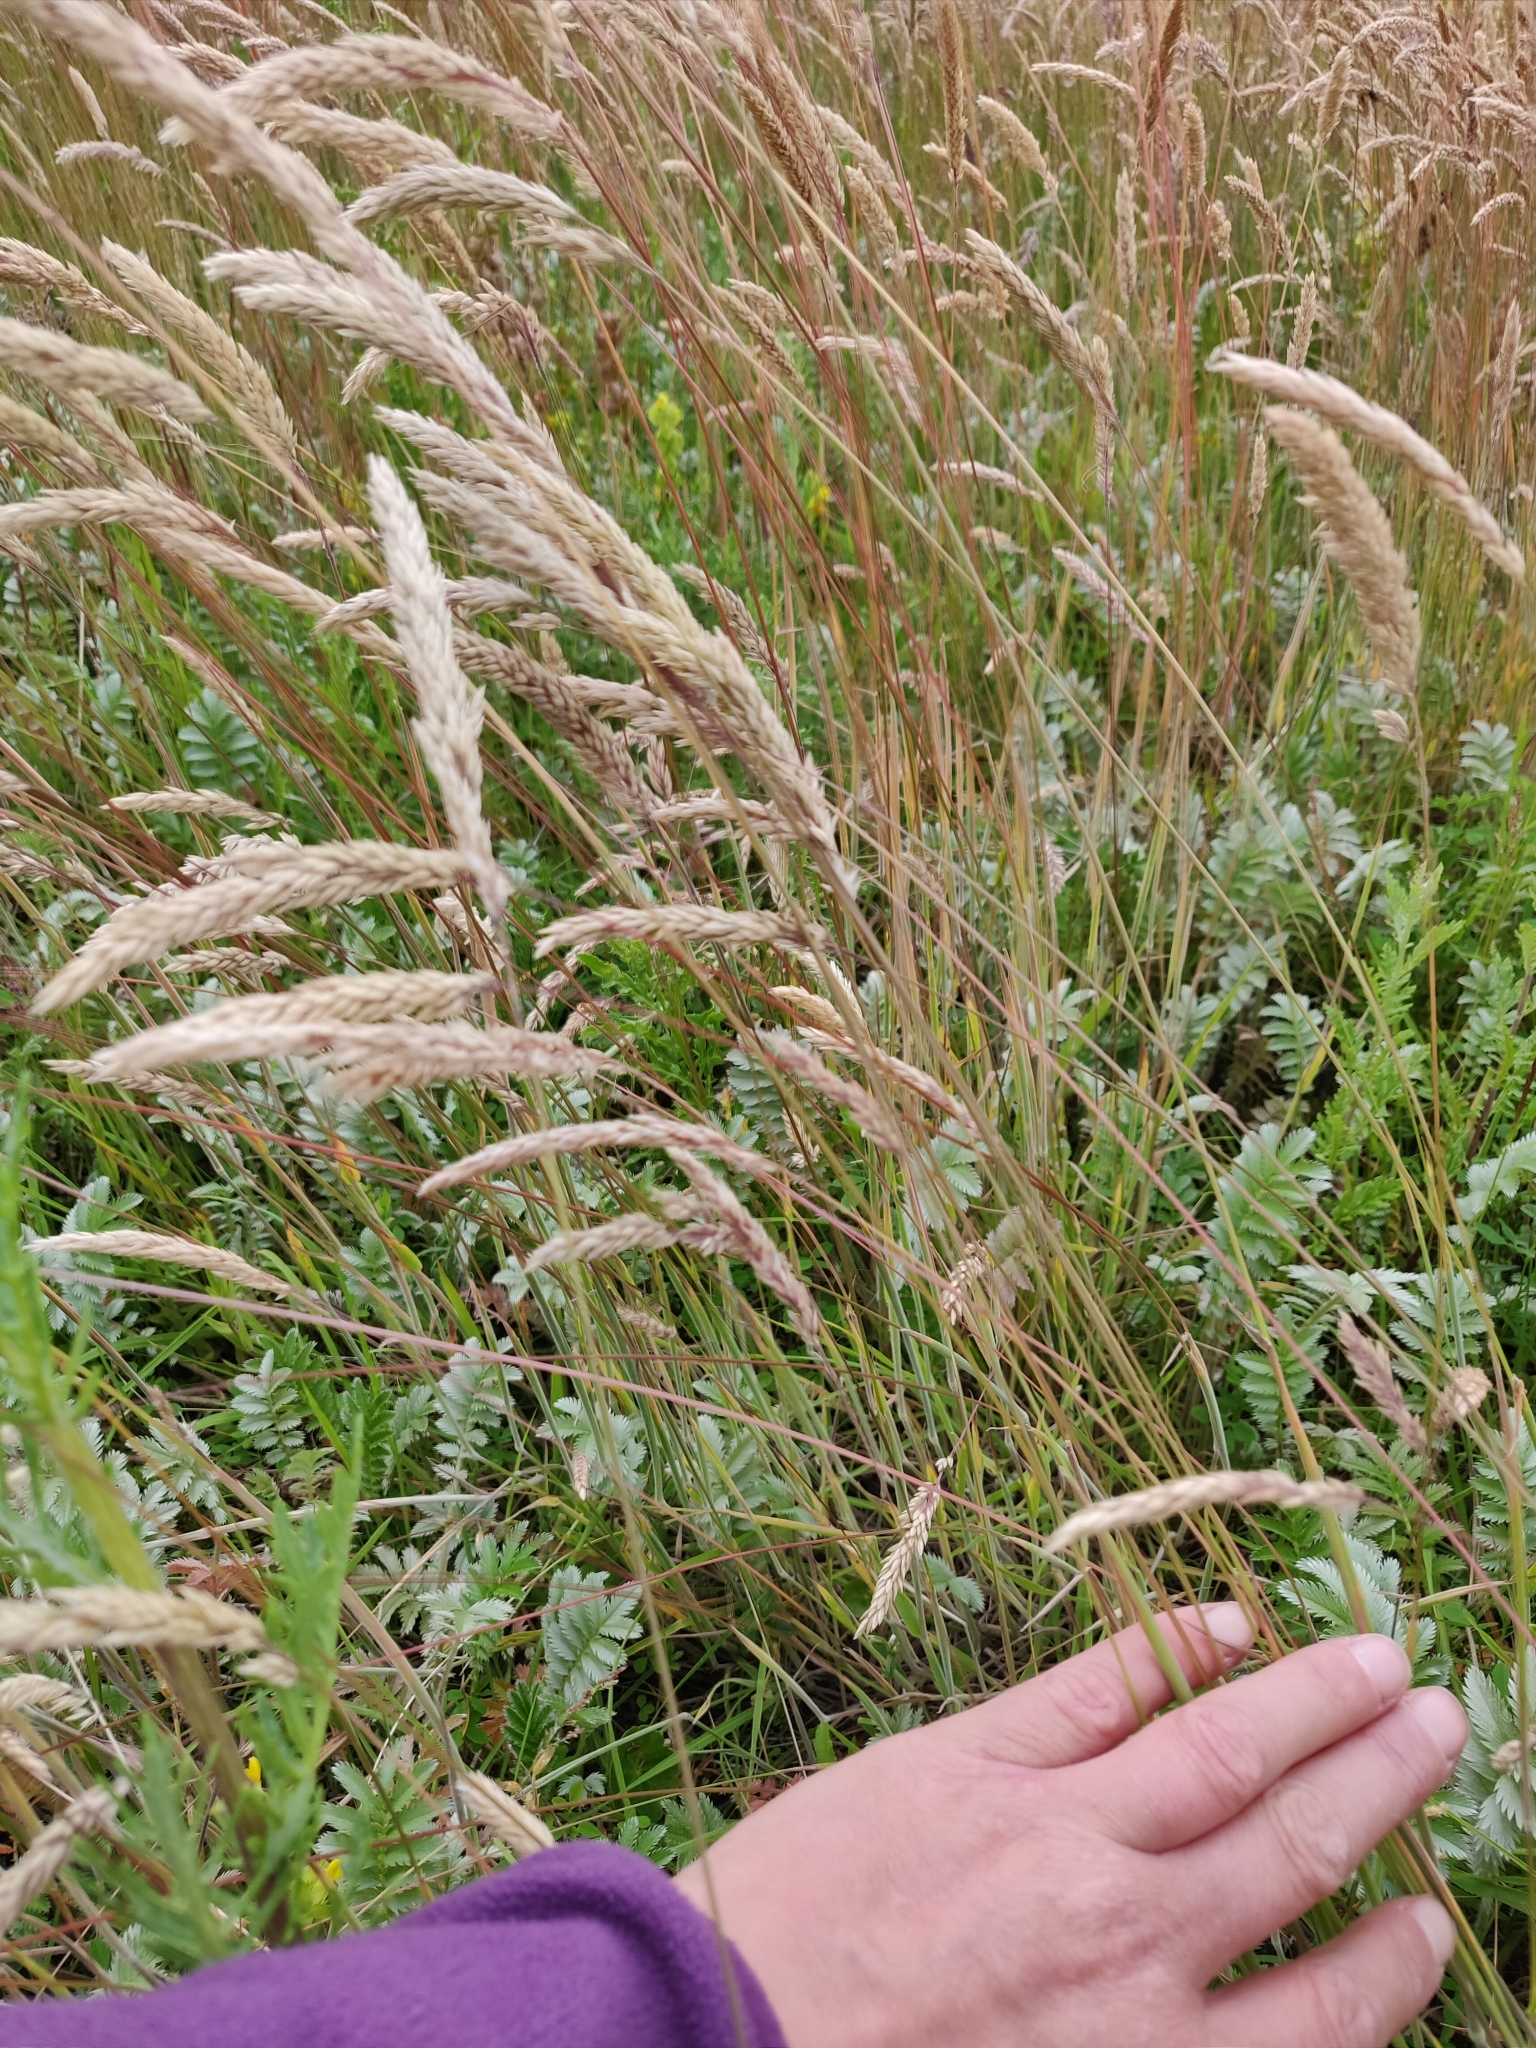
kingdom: Plantae
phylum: Tracheophyta
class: Liliopsida
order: Poales
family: Poaceae
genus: Holcus
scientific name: Holcus lanatus
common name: Yorkshire-fog
